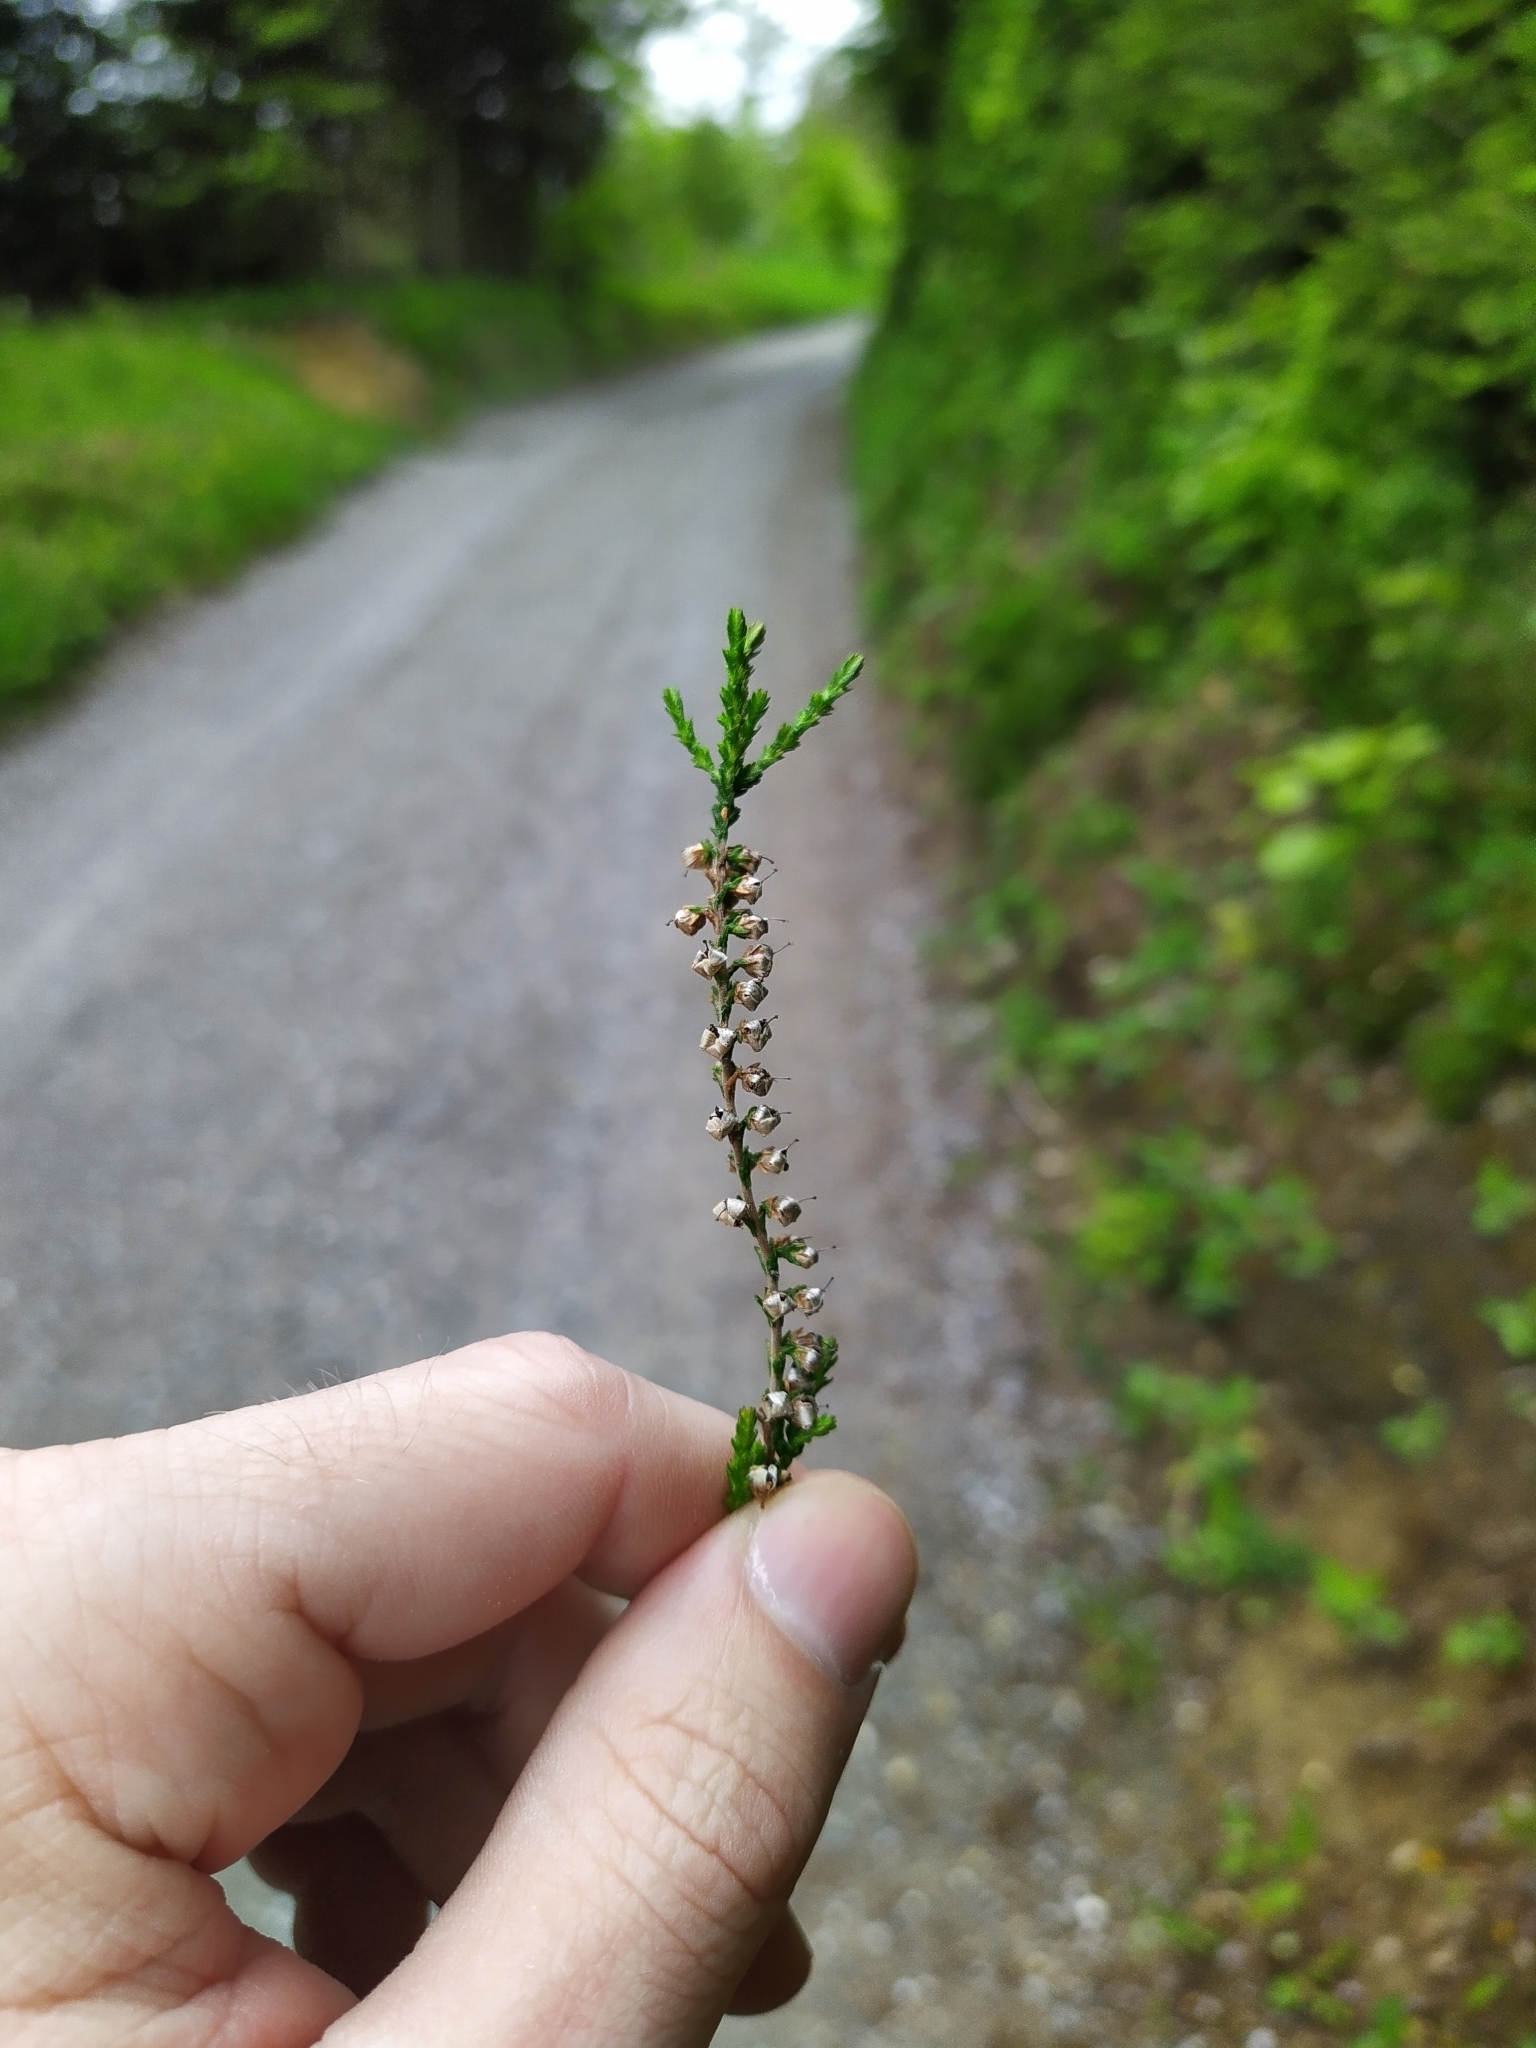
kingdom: Plantae
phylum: Tracheophyta
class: Magnoliopsida
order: Ericales
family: Ericaceae
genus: Calluna
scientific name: Calluna vulgaris
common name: Heather
